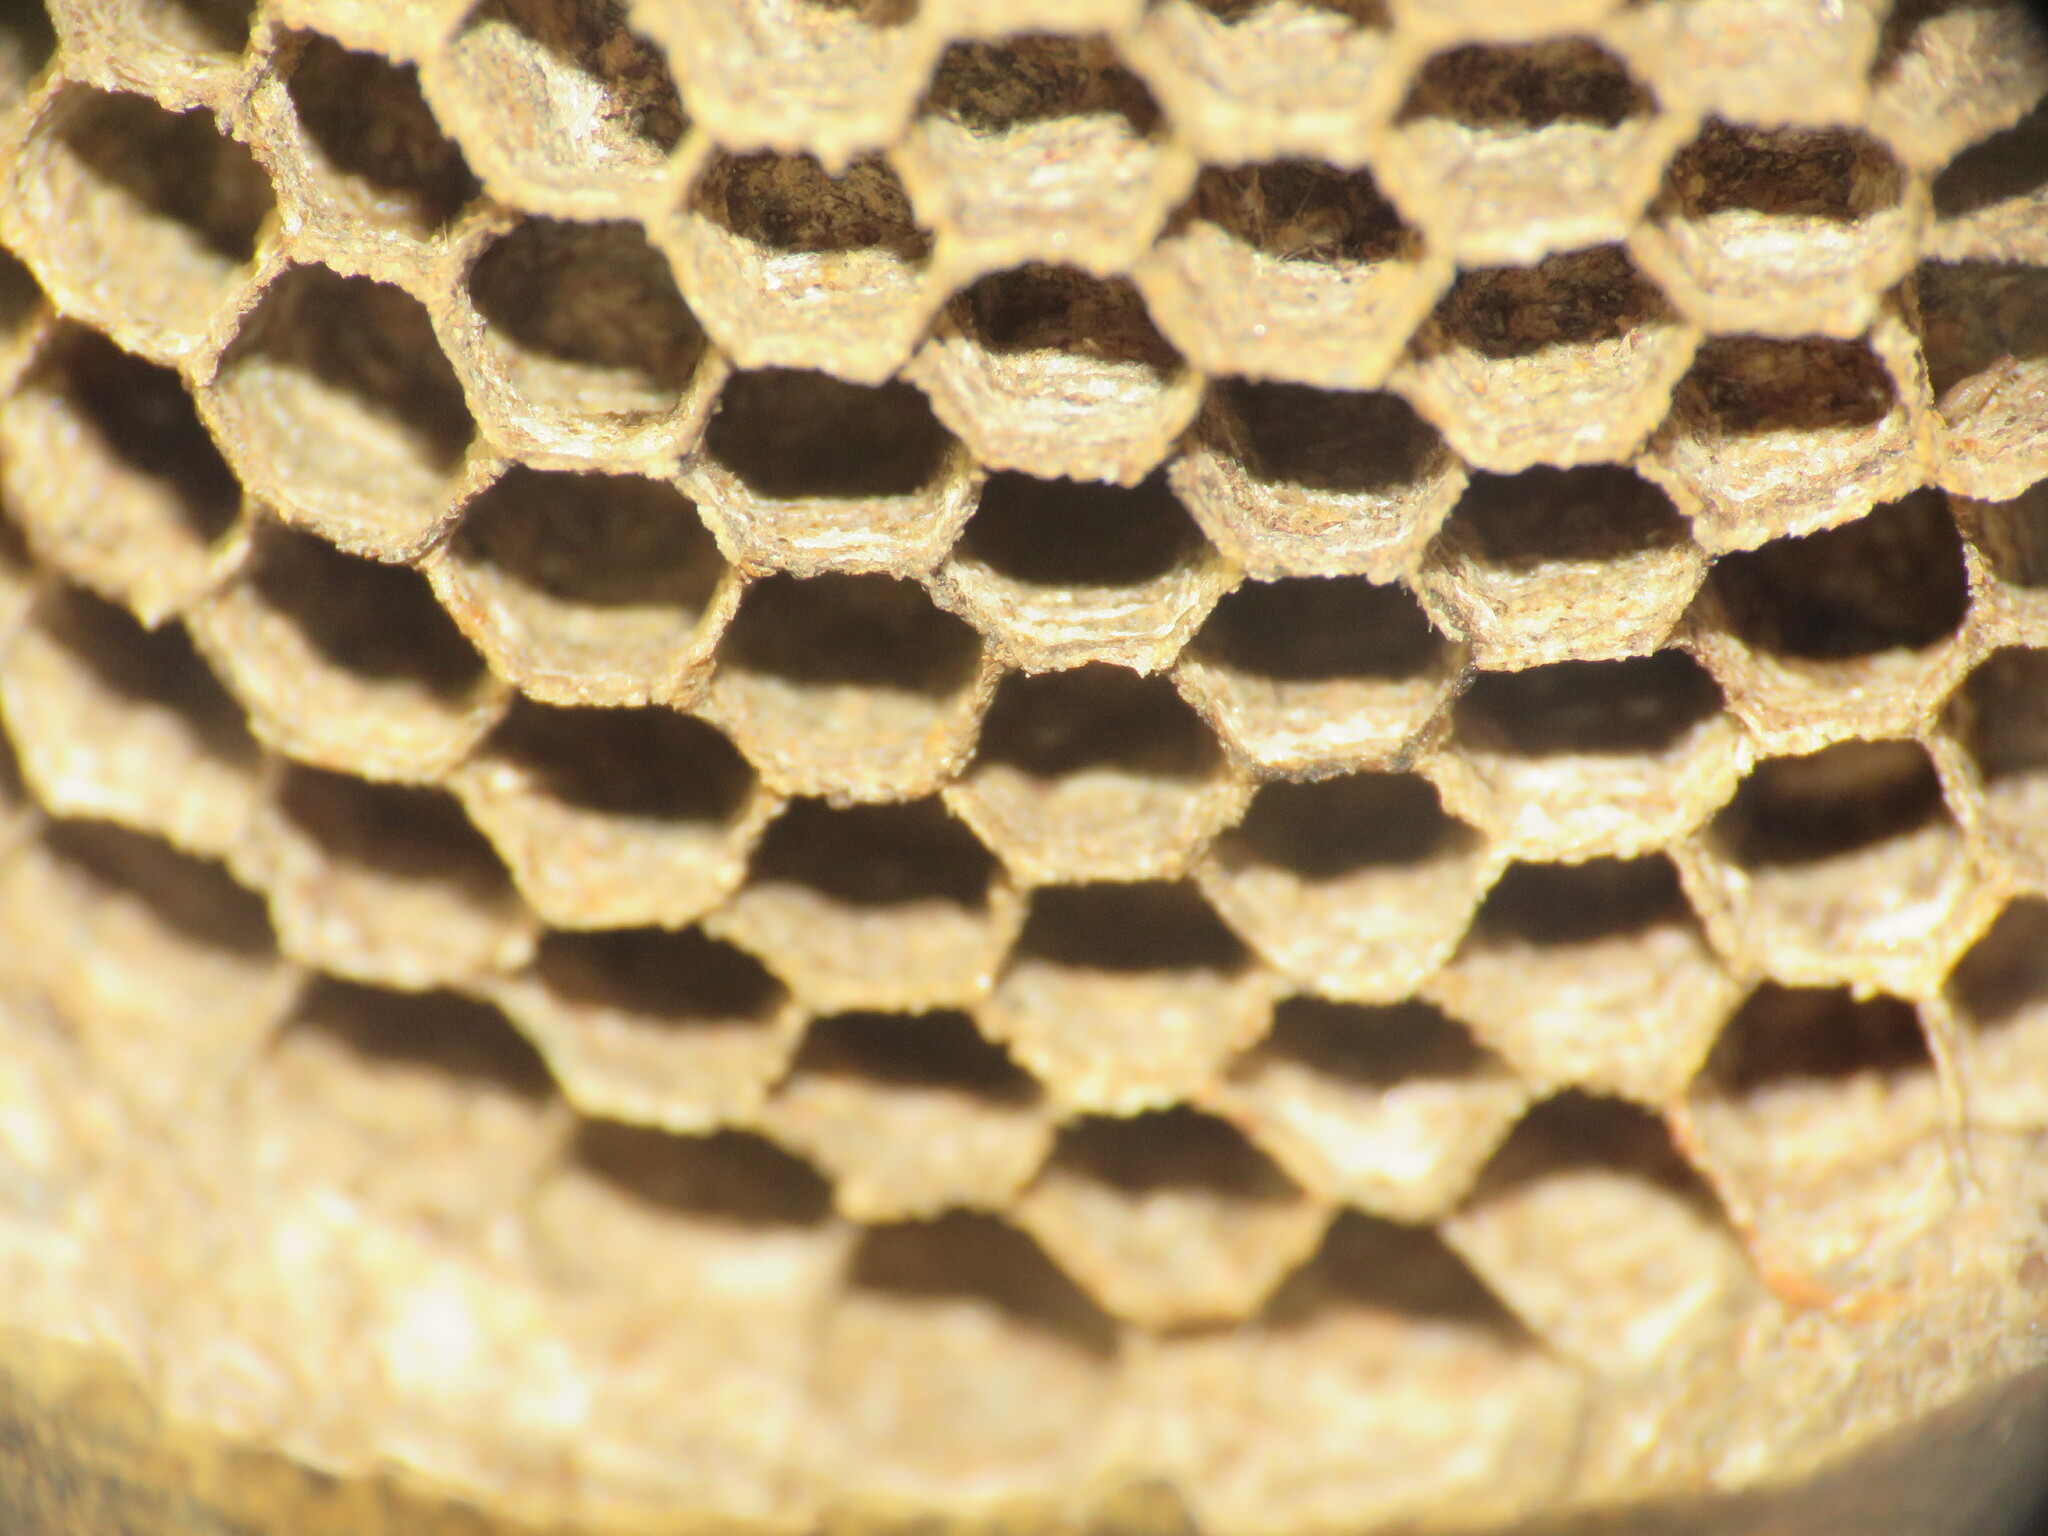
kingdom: Animalia
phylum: Arthropoda
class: Insecta
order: Hymenoptera
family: Eumenidae
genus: Polybia
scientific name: Polybia occidentalis
